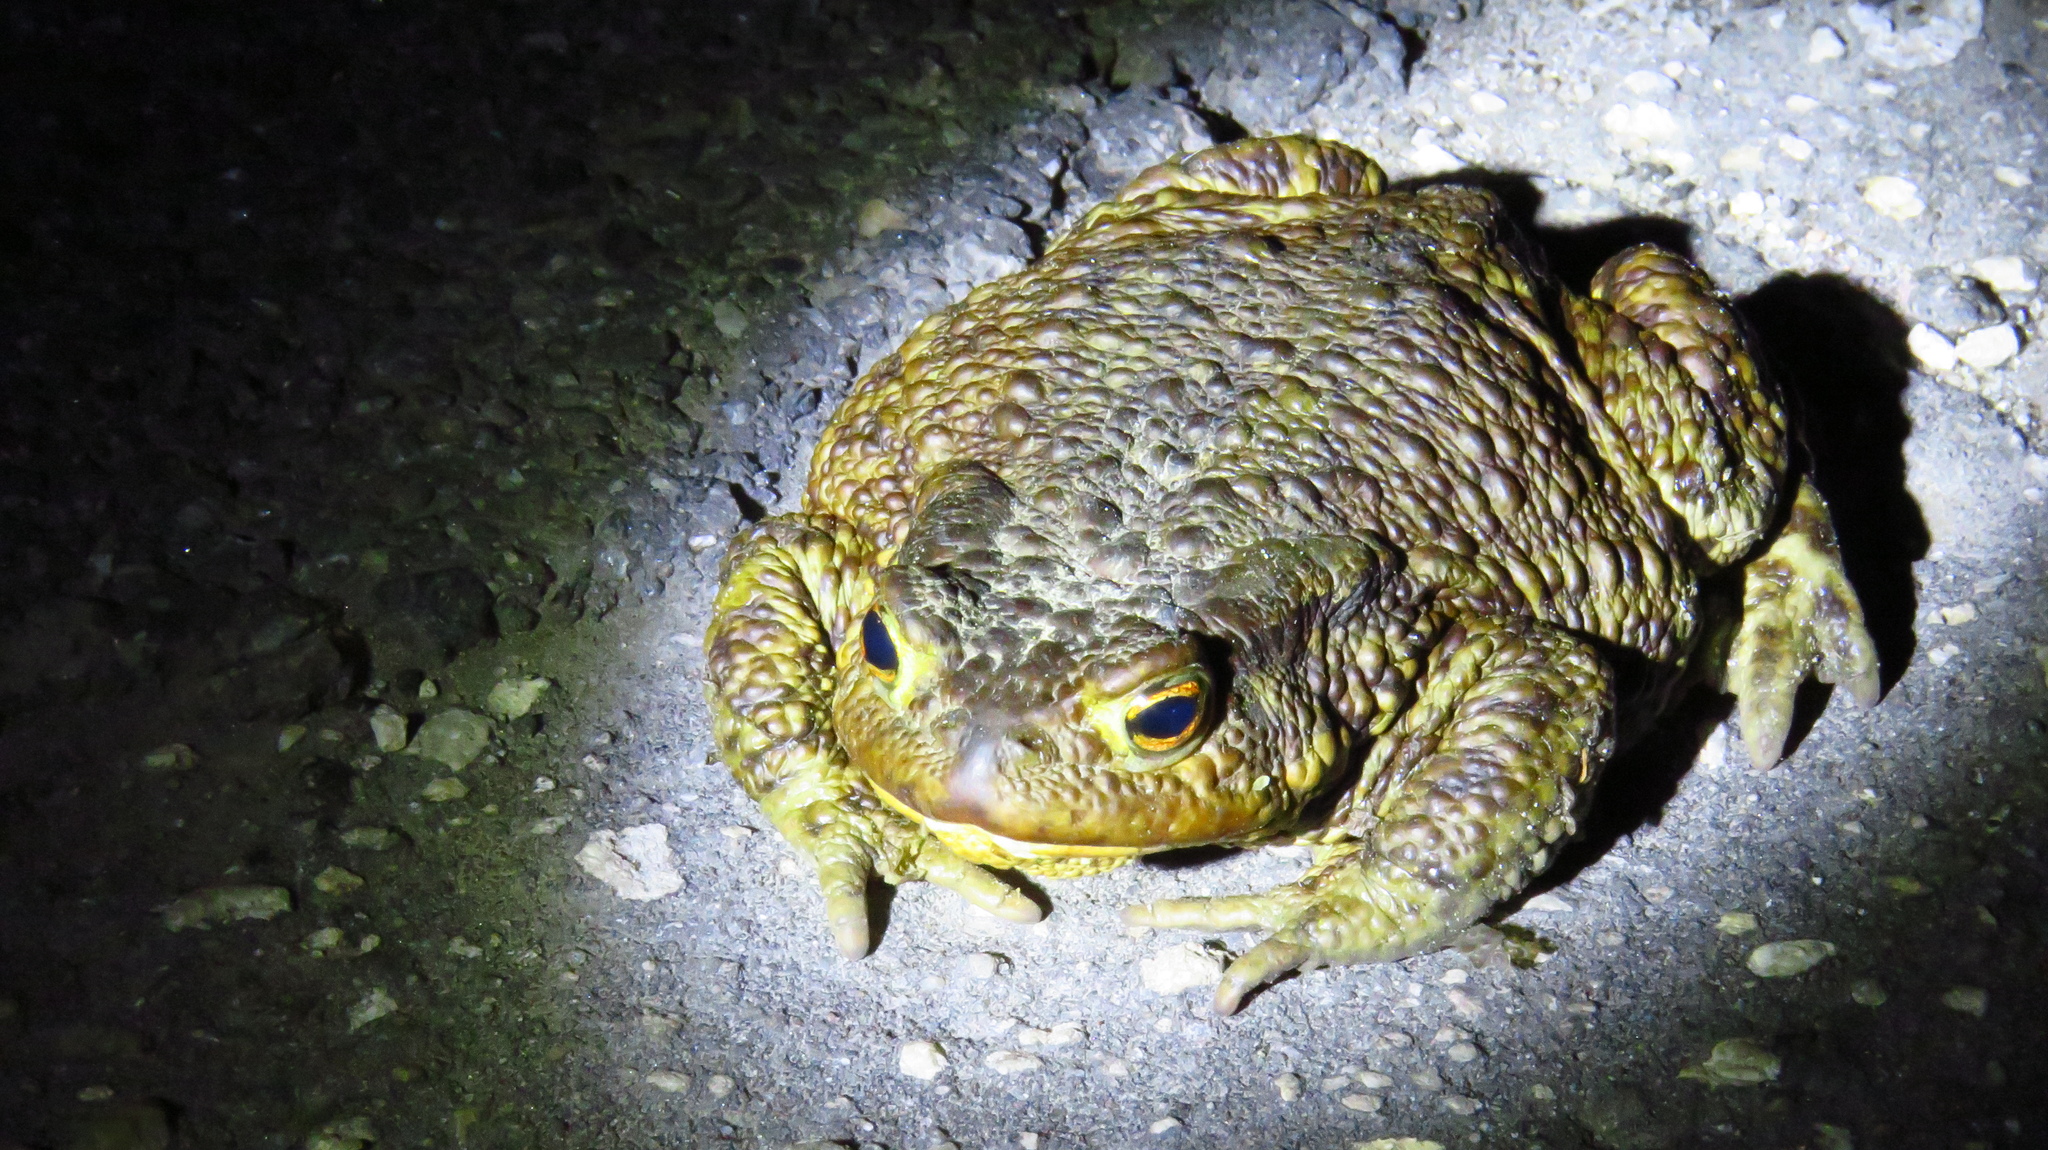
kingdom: Animalia
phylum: Chordata
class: Amphibia
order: Anura
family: Bufonidae
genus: Bufo
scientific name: Bufo bufo
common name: Common toad
